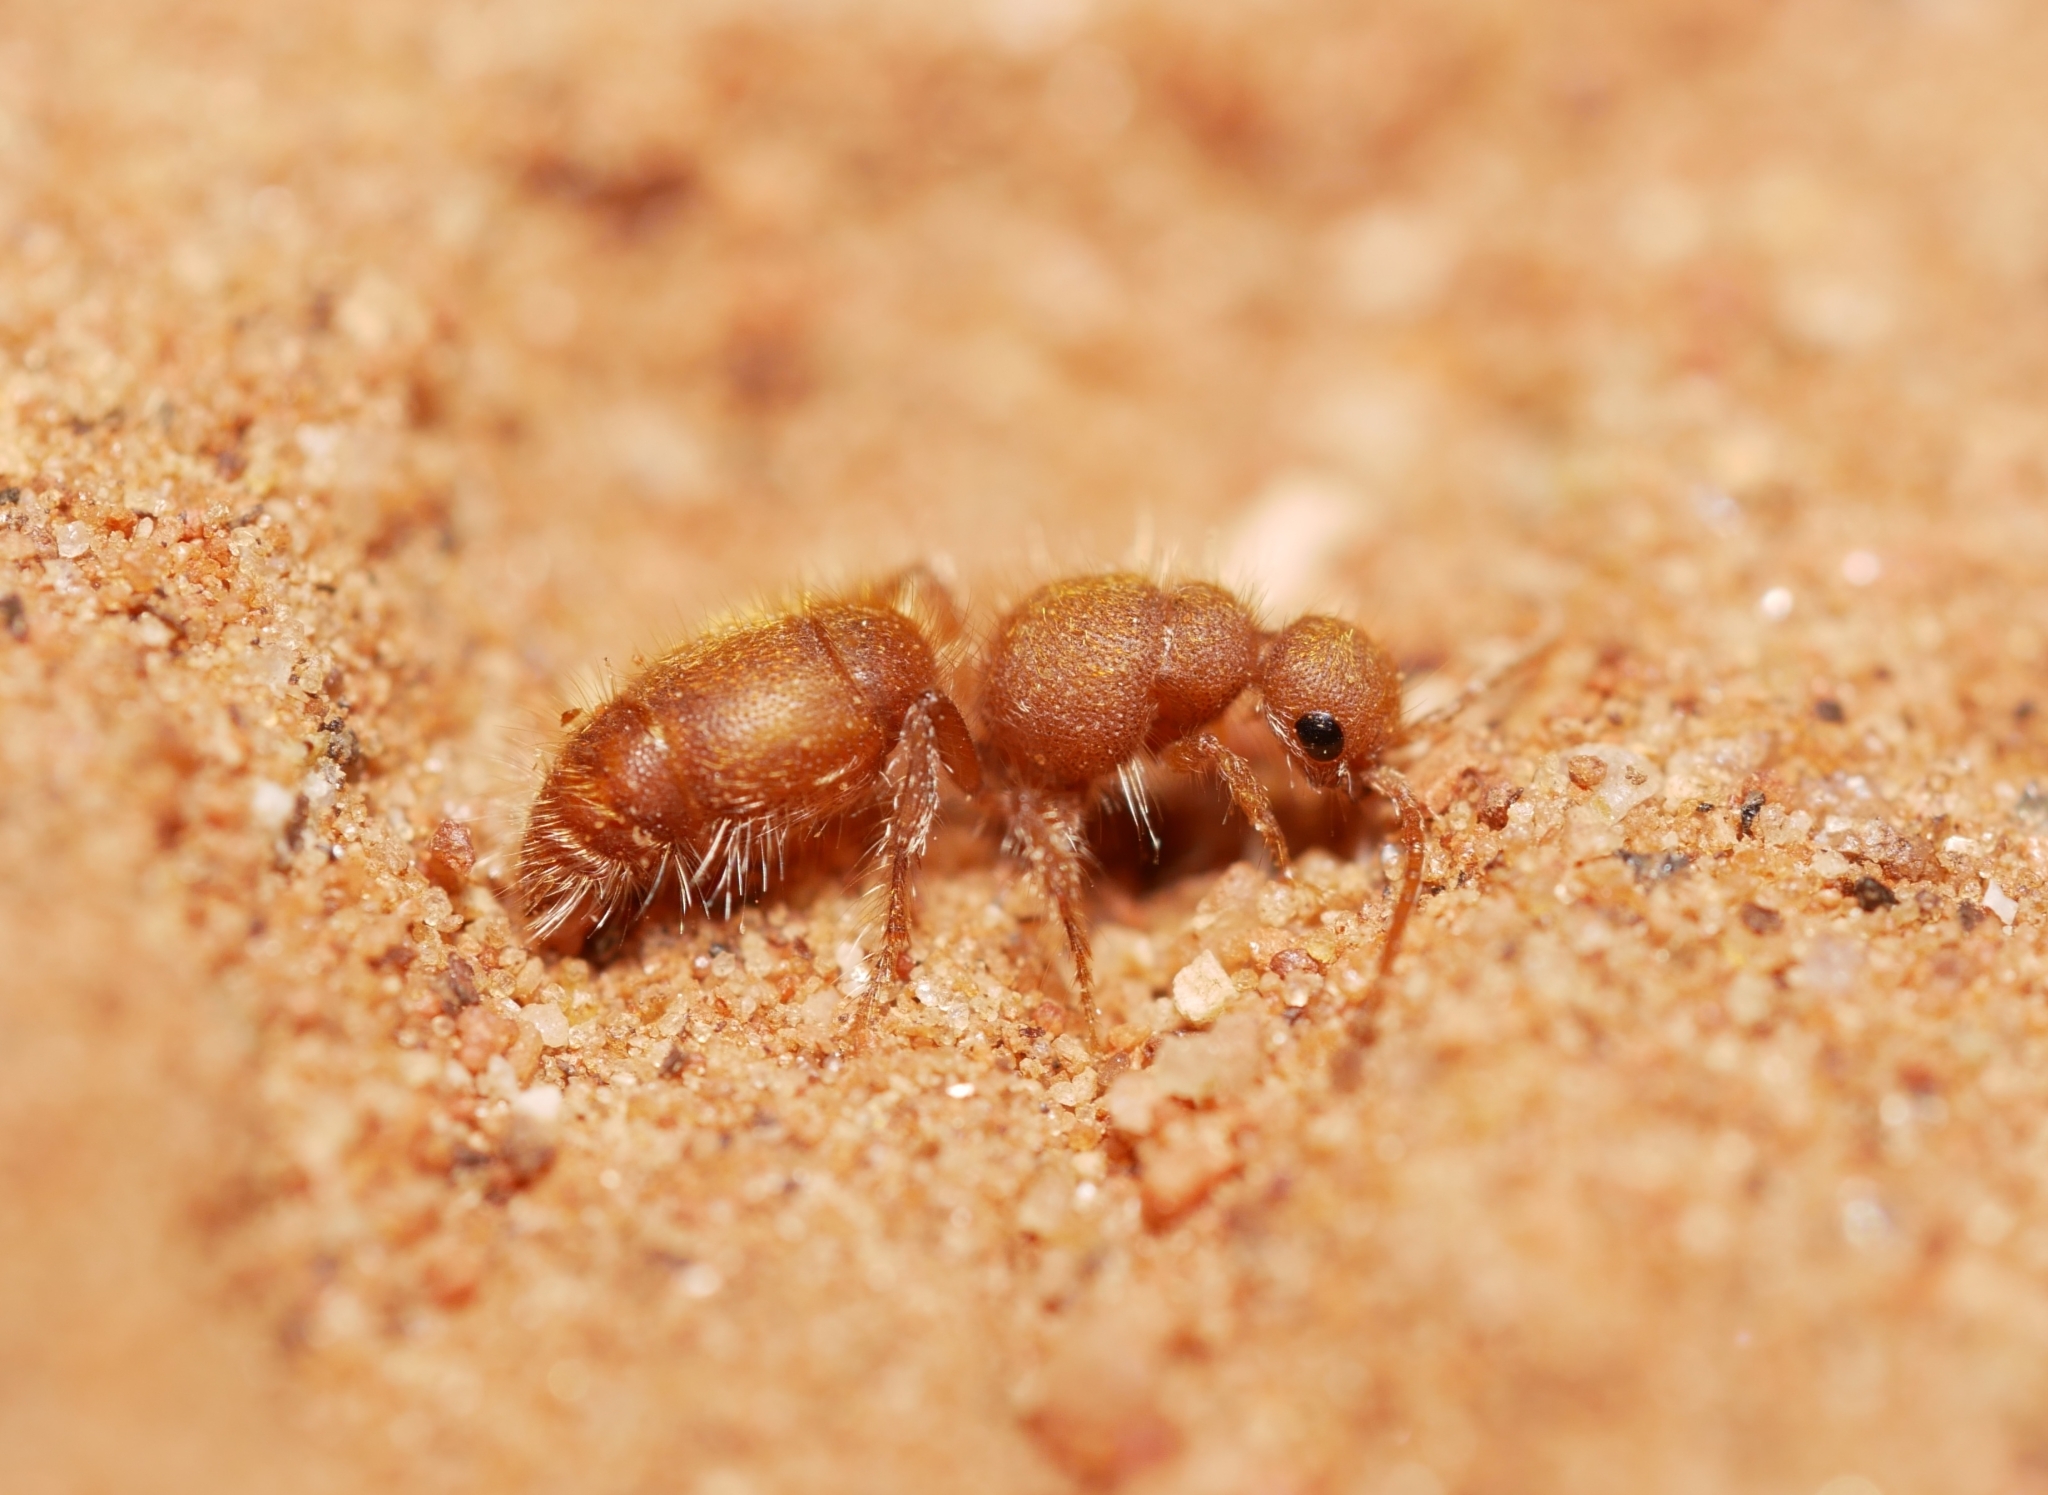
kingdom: Animalia
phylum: Arthropoda
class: Insecta
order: Hymenoptera
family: Chyphotidae
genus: Chyphotes
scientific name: Chyphotes
